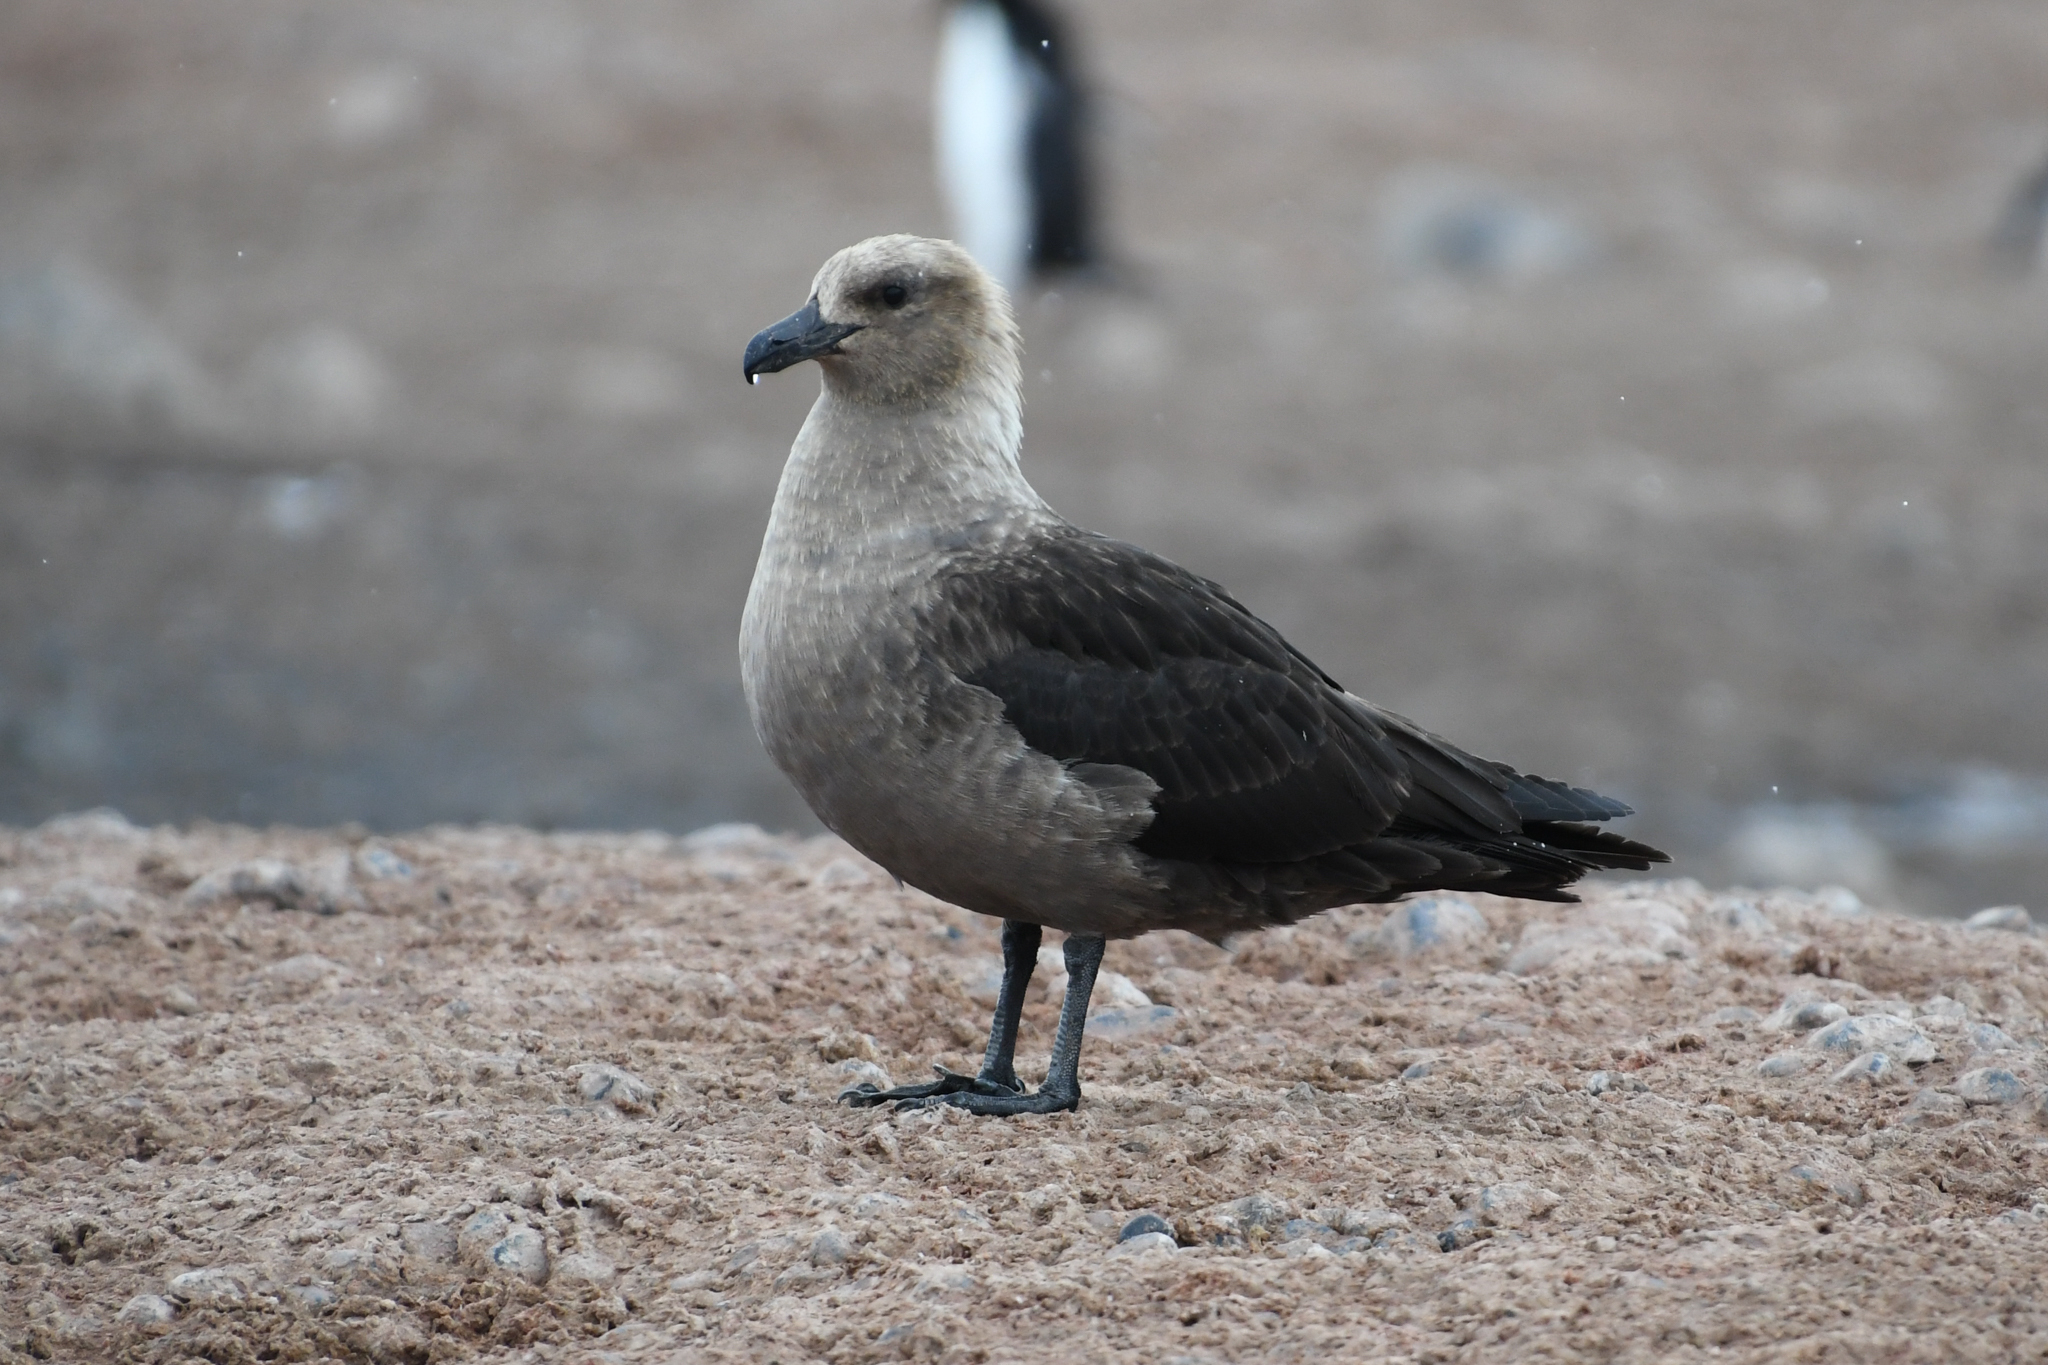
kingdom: Animalia
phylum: Chordata
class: Aves
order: Charadriiformes
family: Stercorariidae
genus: Stercorarius
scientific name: Stercorarius maccormicki
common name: South polar skua
